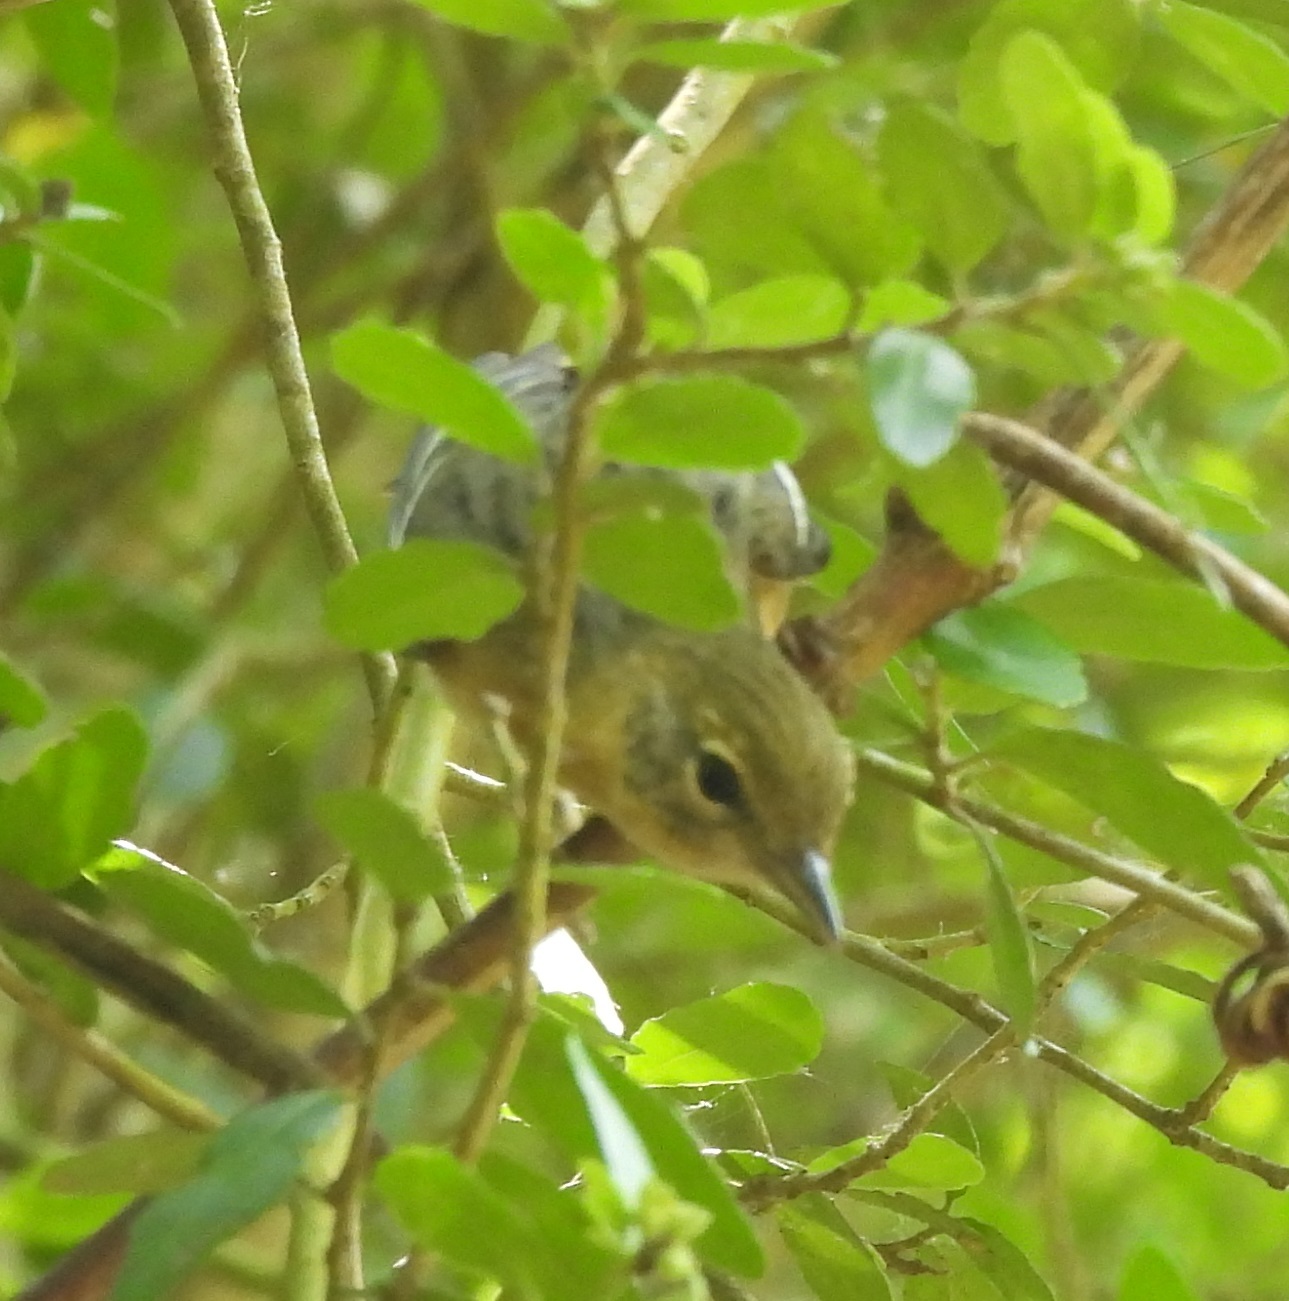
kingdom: Animalia
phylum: Chordata
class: Aves
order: Passeriformes
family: Parulidae
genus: Setophaga
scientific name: Setophaga castanea
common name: Bay-breasted warbler
